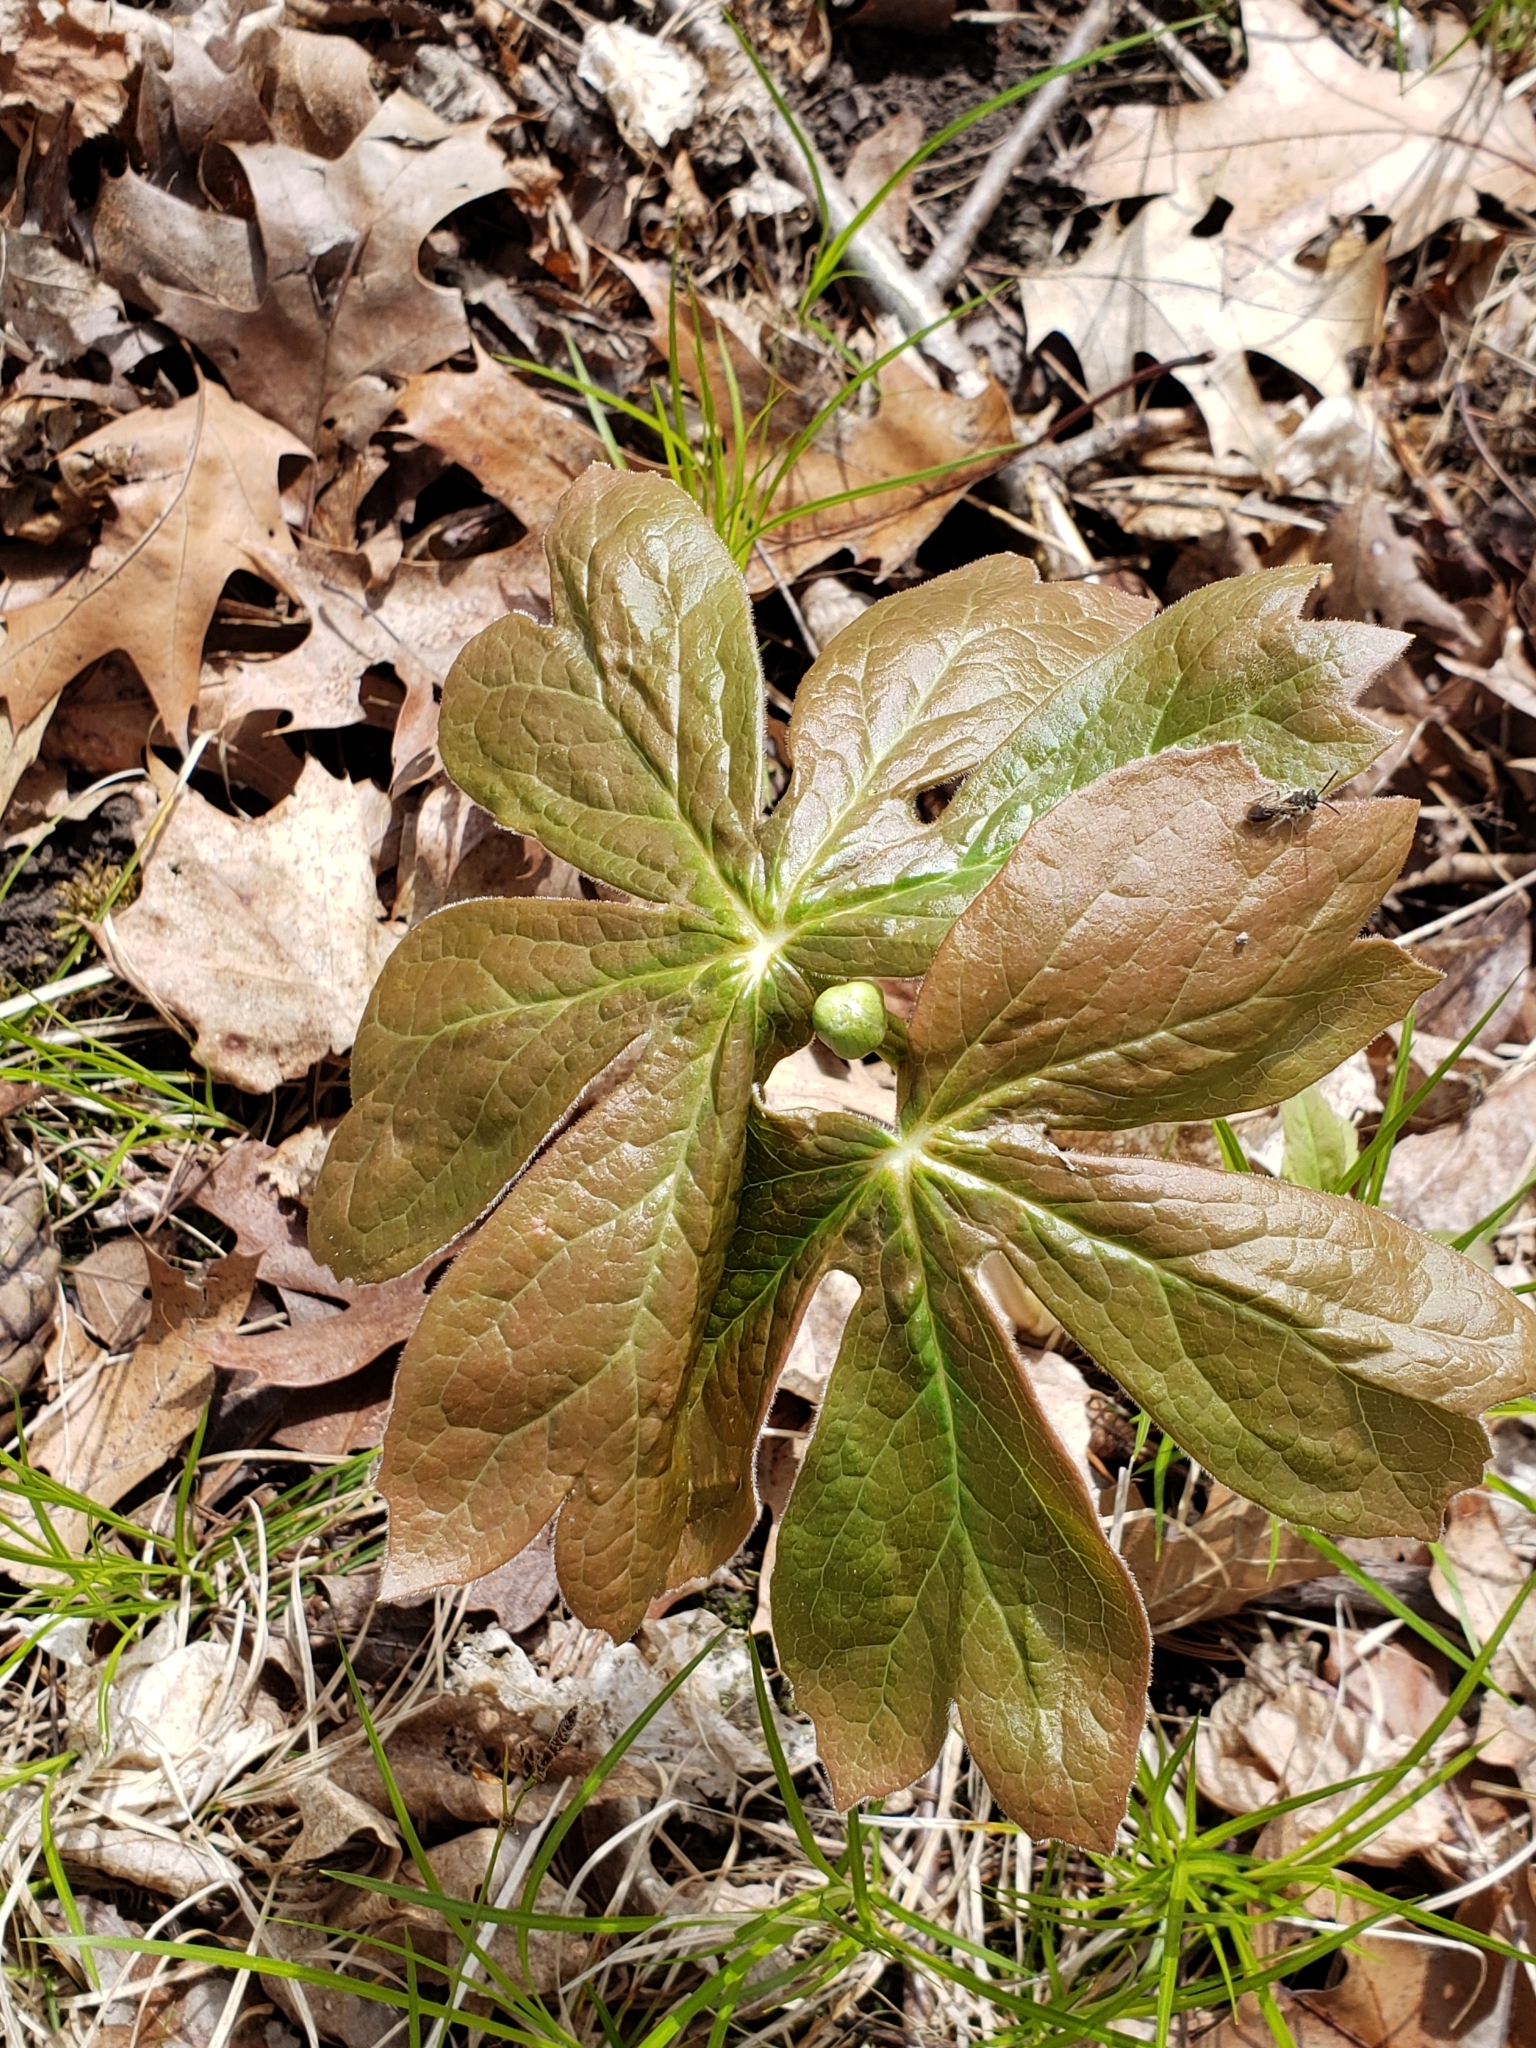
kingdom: Plantae
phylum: Tracheophyta
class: Magnoliopsida
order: Ranunculales
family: Berberidaceae
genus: Podophyllum
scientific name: Podophyllum peltatum
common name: Wild mandrake
